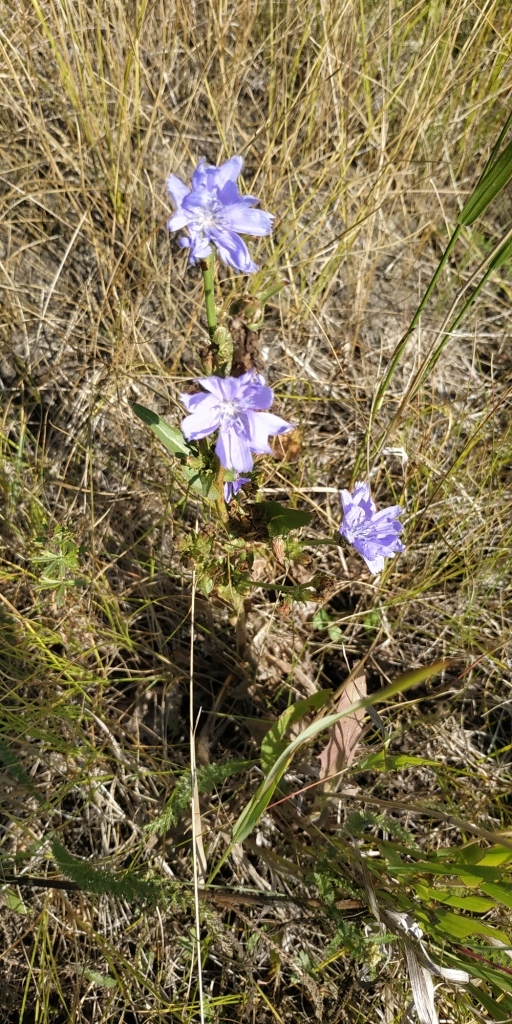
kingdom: Plantae
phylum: Tracheophyta
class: Magnoliopsida
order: Asterales
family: Asteraceae
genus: Cichorium
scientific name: Cichorium intybus
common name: Chicory
